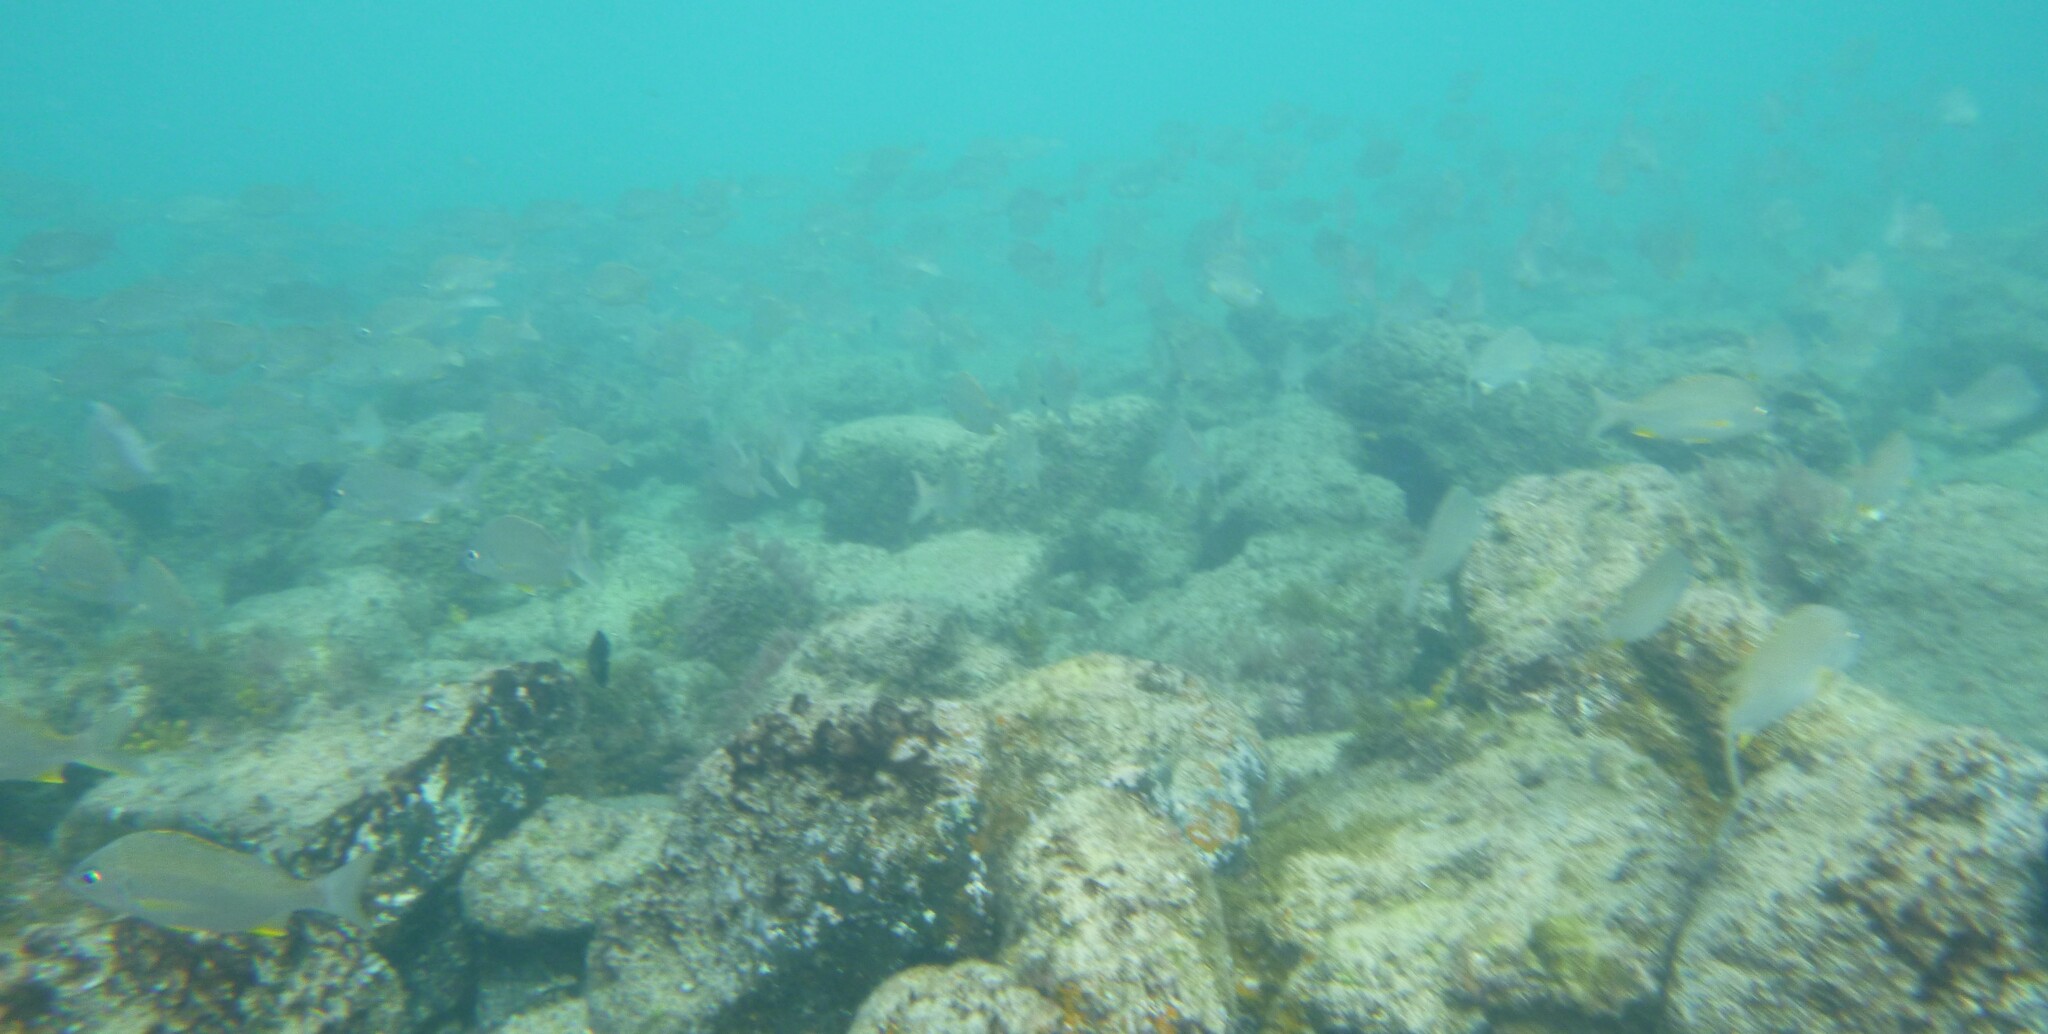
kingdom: Animalia
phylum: Chordata
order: Perciformes
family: Haemulidae
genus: Pomadasys
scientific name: Pomadasys incisus
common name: Bastard grunt
